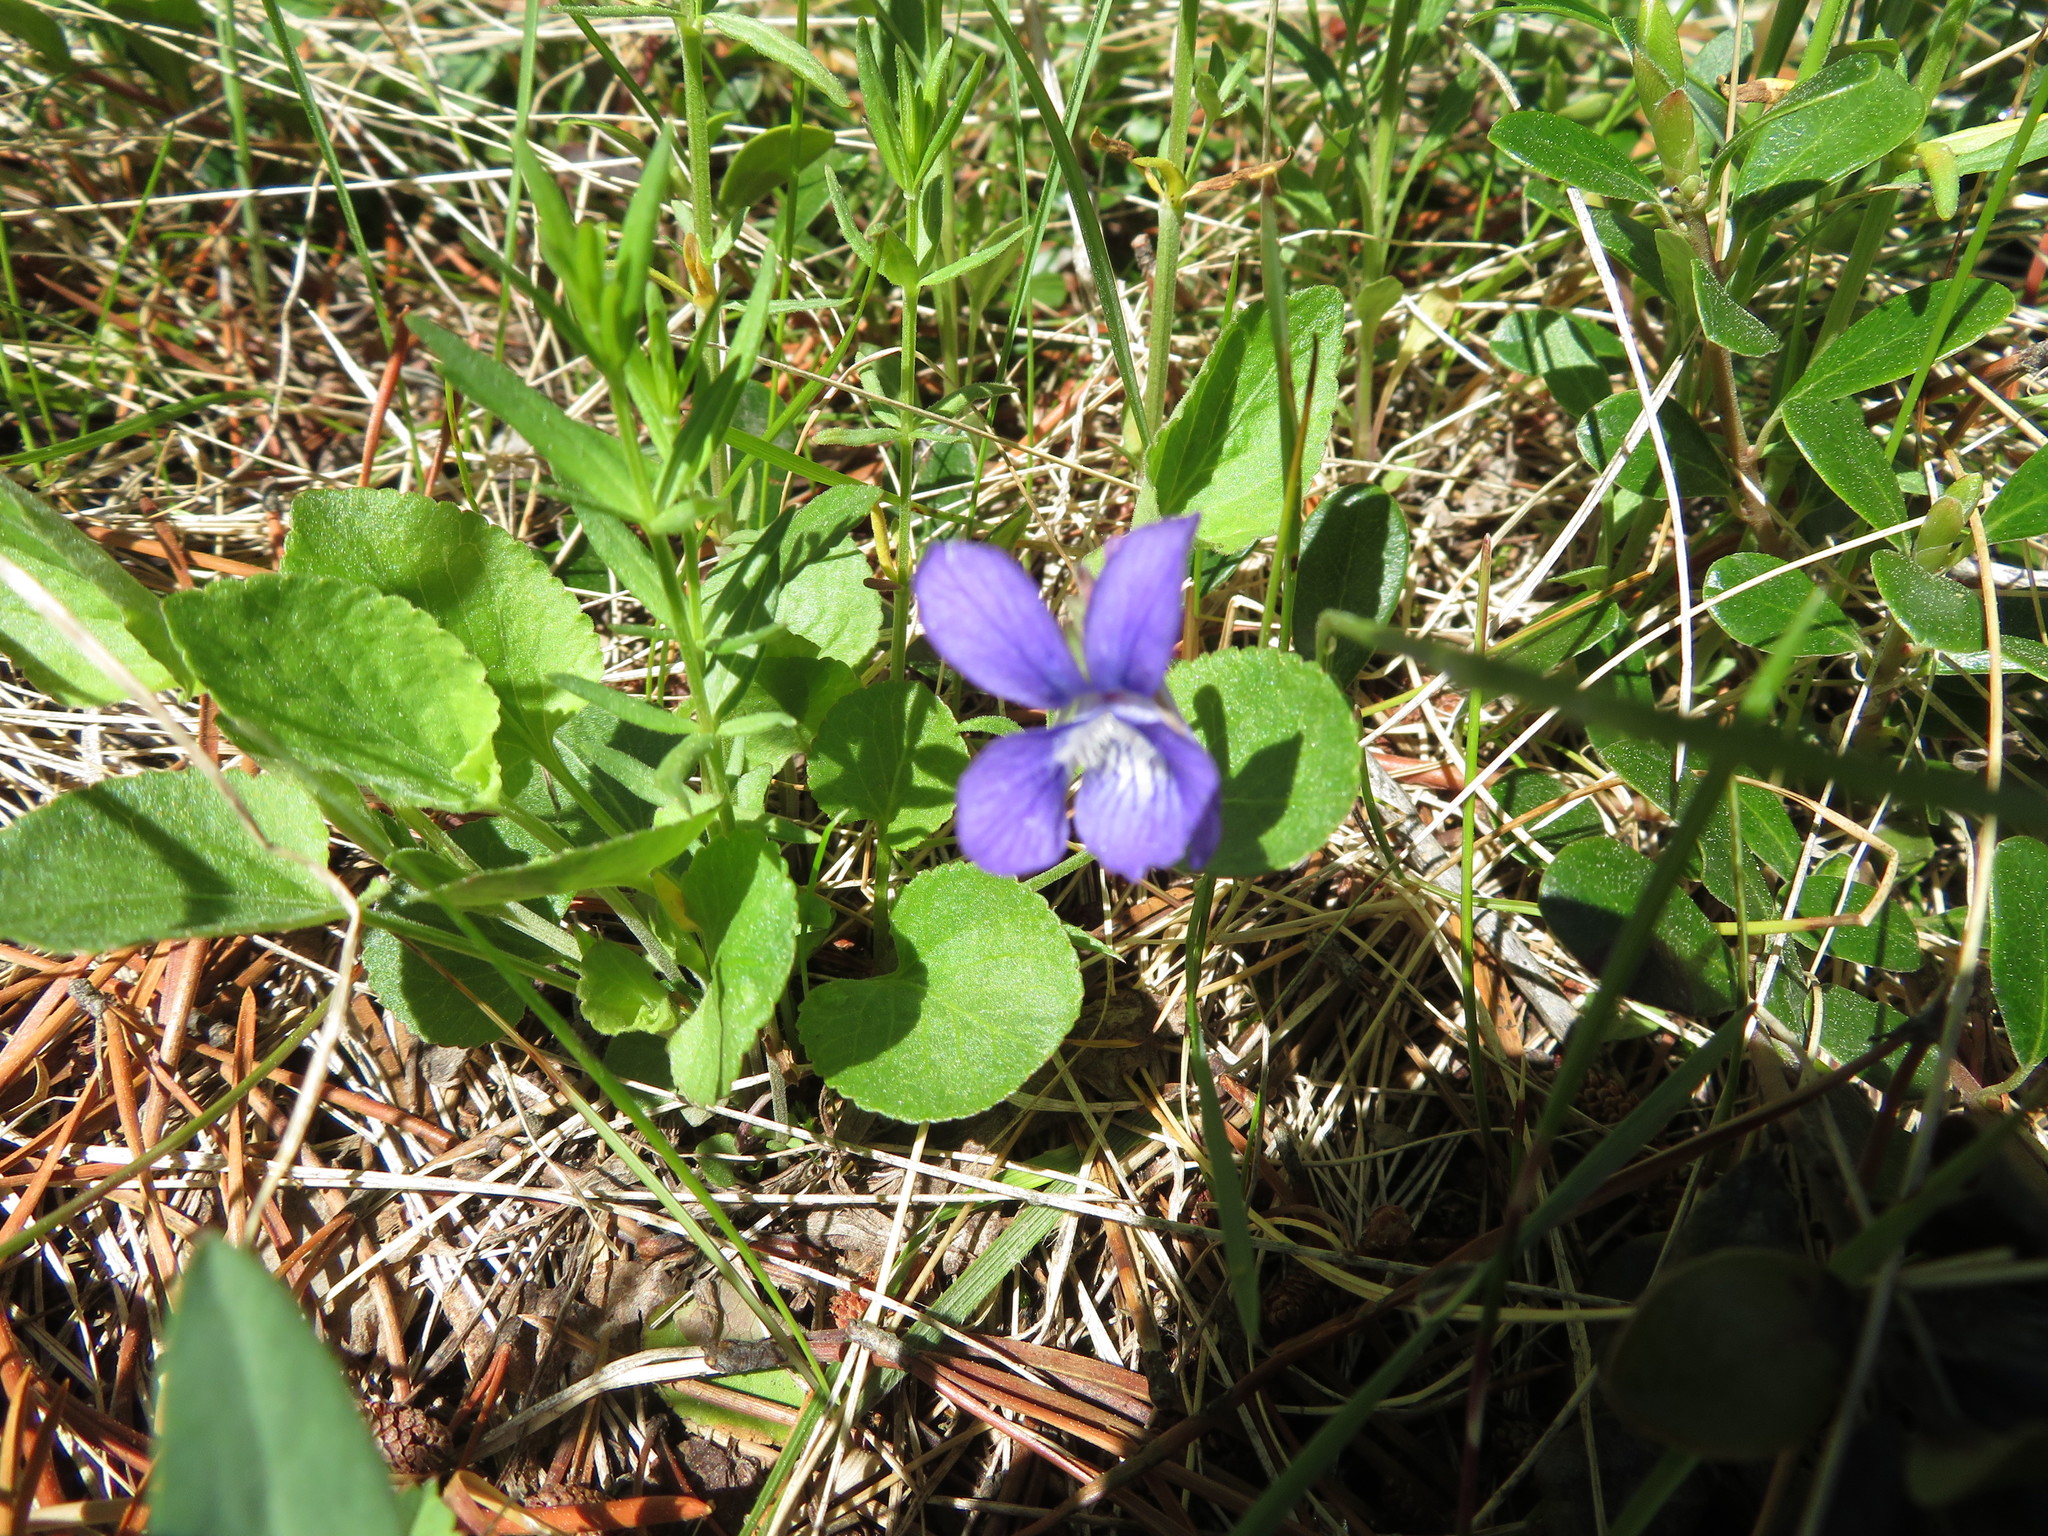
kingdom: Plantae
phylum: Tracheophyta
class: Magnoliopsida
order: Malpighiales
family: Violaceae
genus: Viola
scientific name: Viola adunca
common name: Sand violet
